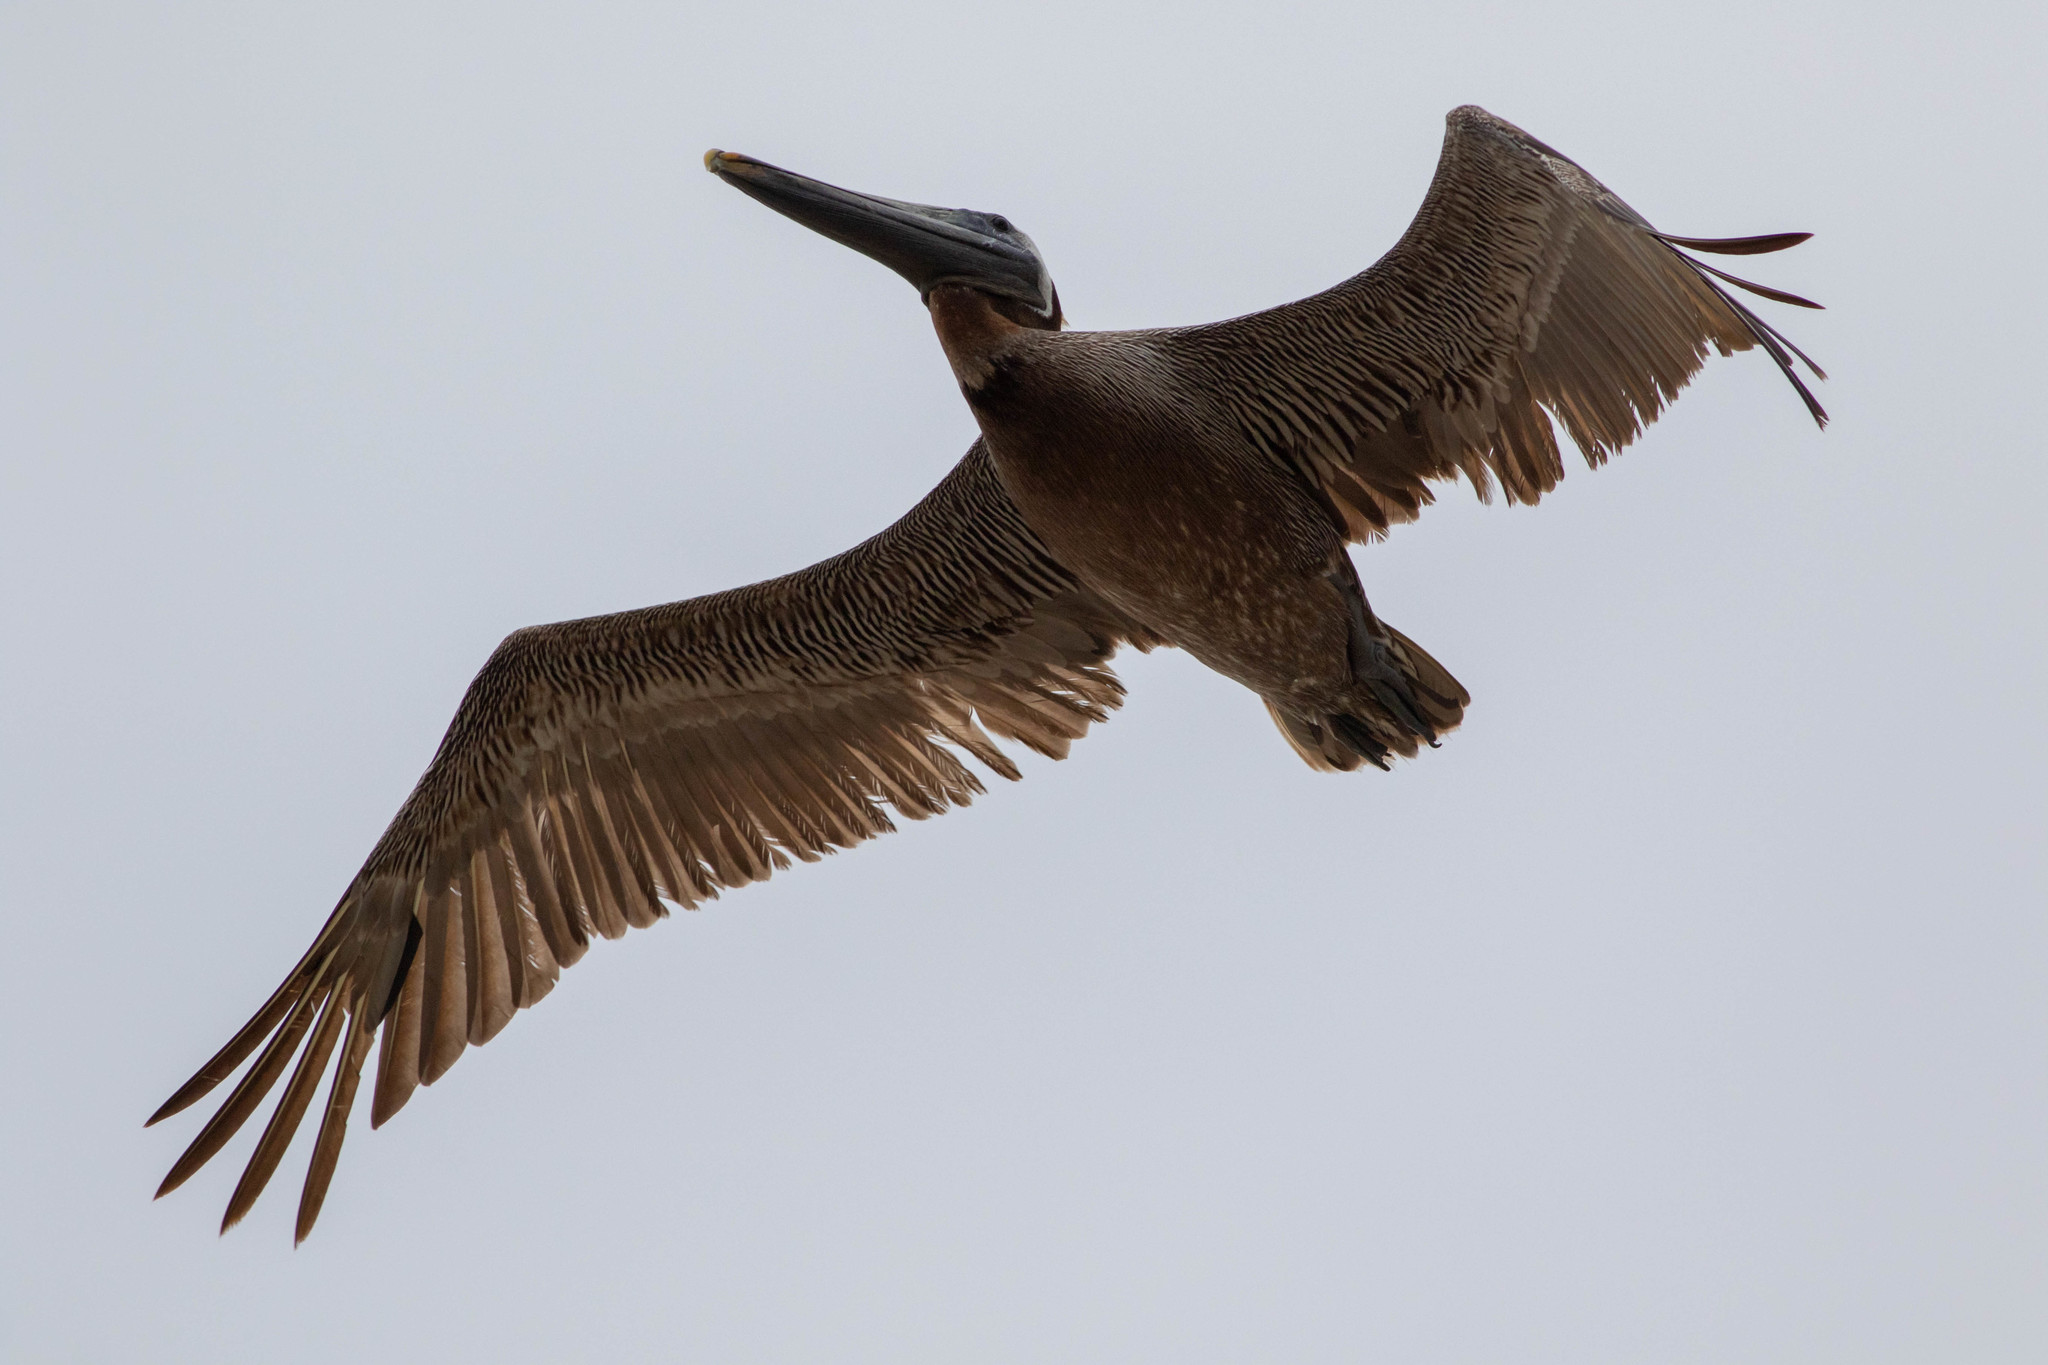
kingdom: Animalia
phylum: Chordata
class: Aves
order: Pelecaniformes
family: Pelecanidae
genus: Pelecanus
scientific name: Pelecanus occidentalis
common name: Brown pelican
